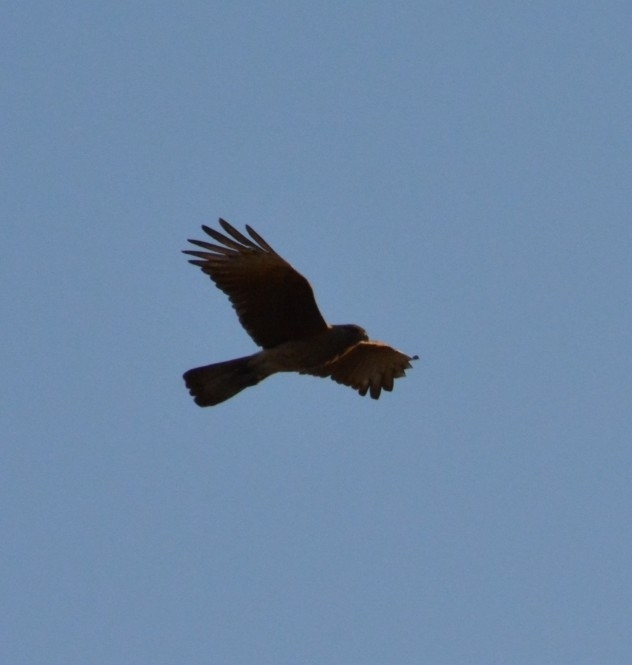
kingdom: Animalia
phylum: Chordata
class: Aves
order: Falconiformes
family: Falconidae
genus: Daptrius
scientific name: Daptrius
